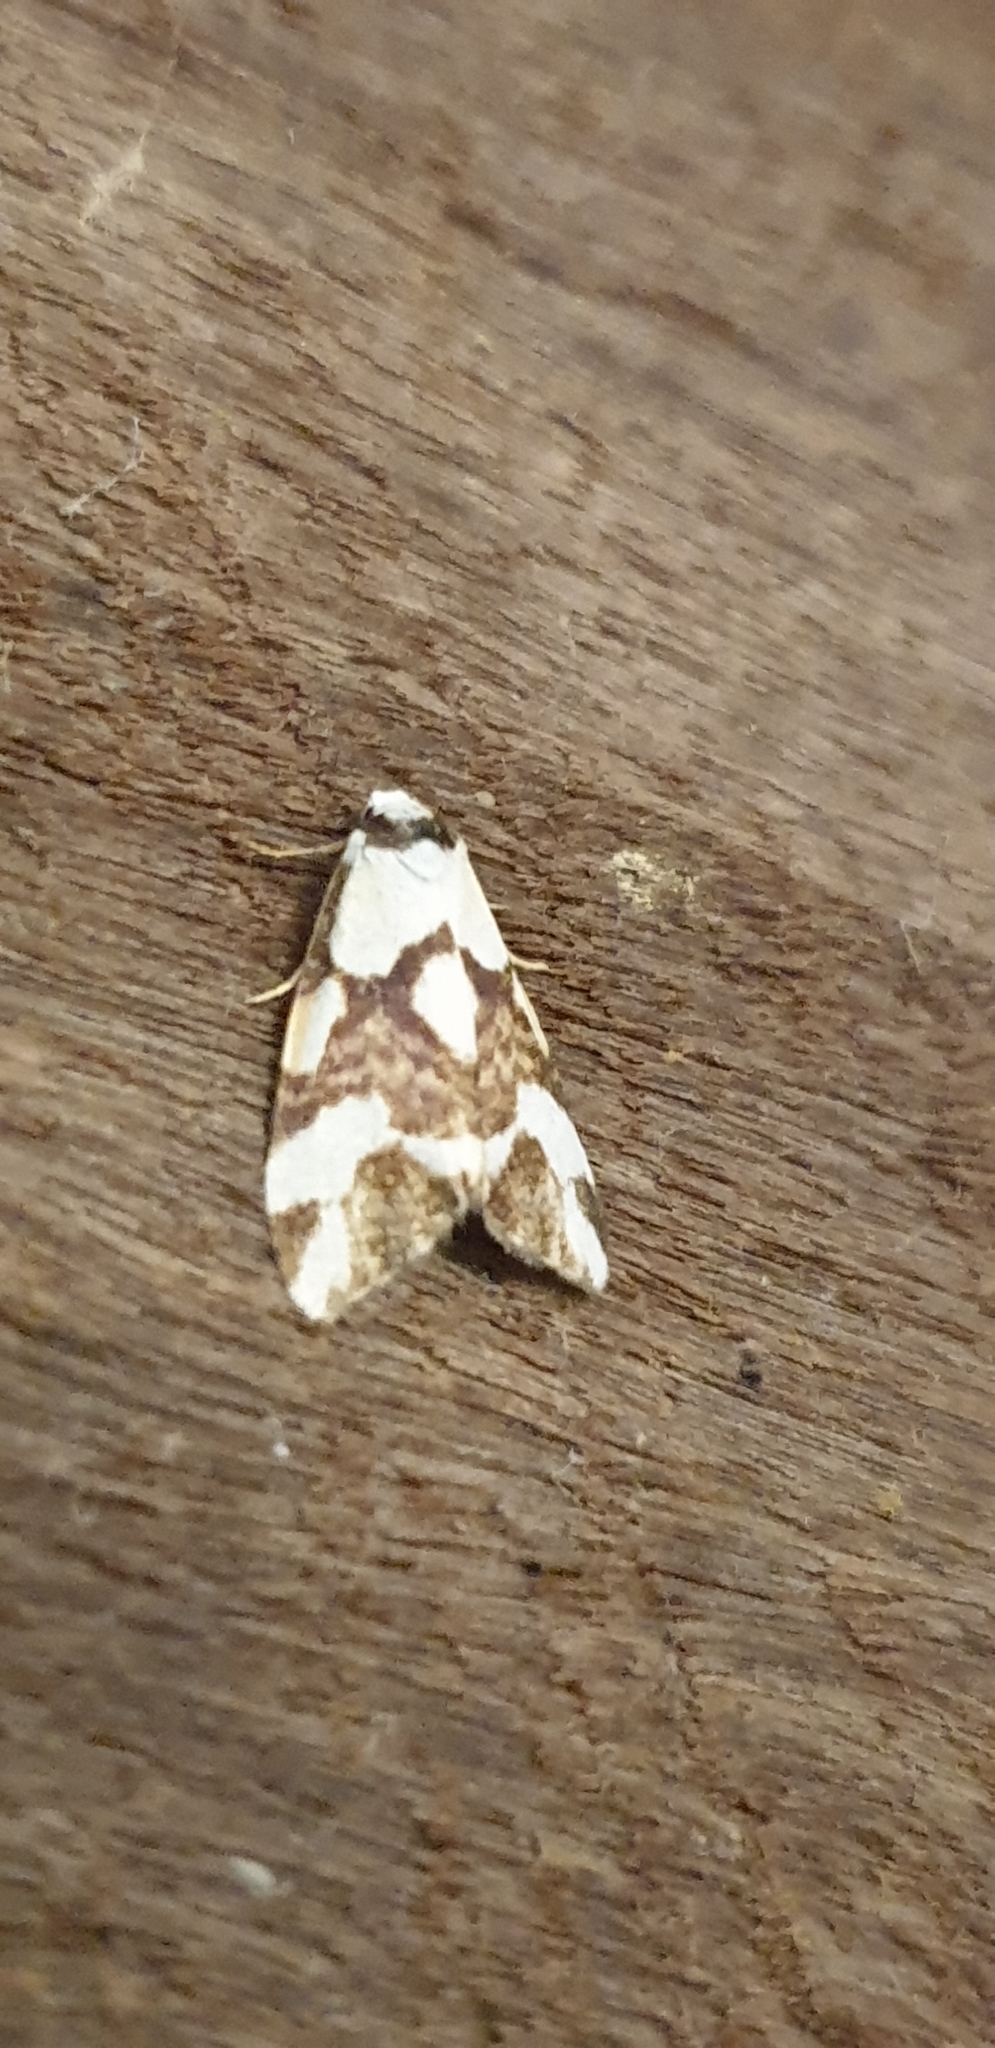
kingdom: Animalia
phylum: Arthropoda
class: Insecta
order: Lepidoptera
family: Erebidae
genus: Thallarcha
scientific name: Thallarcha staurocola
